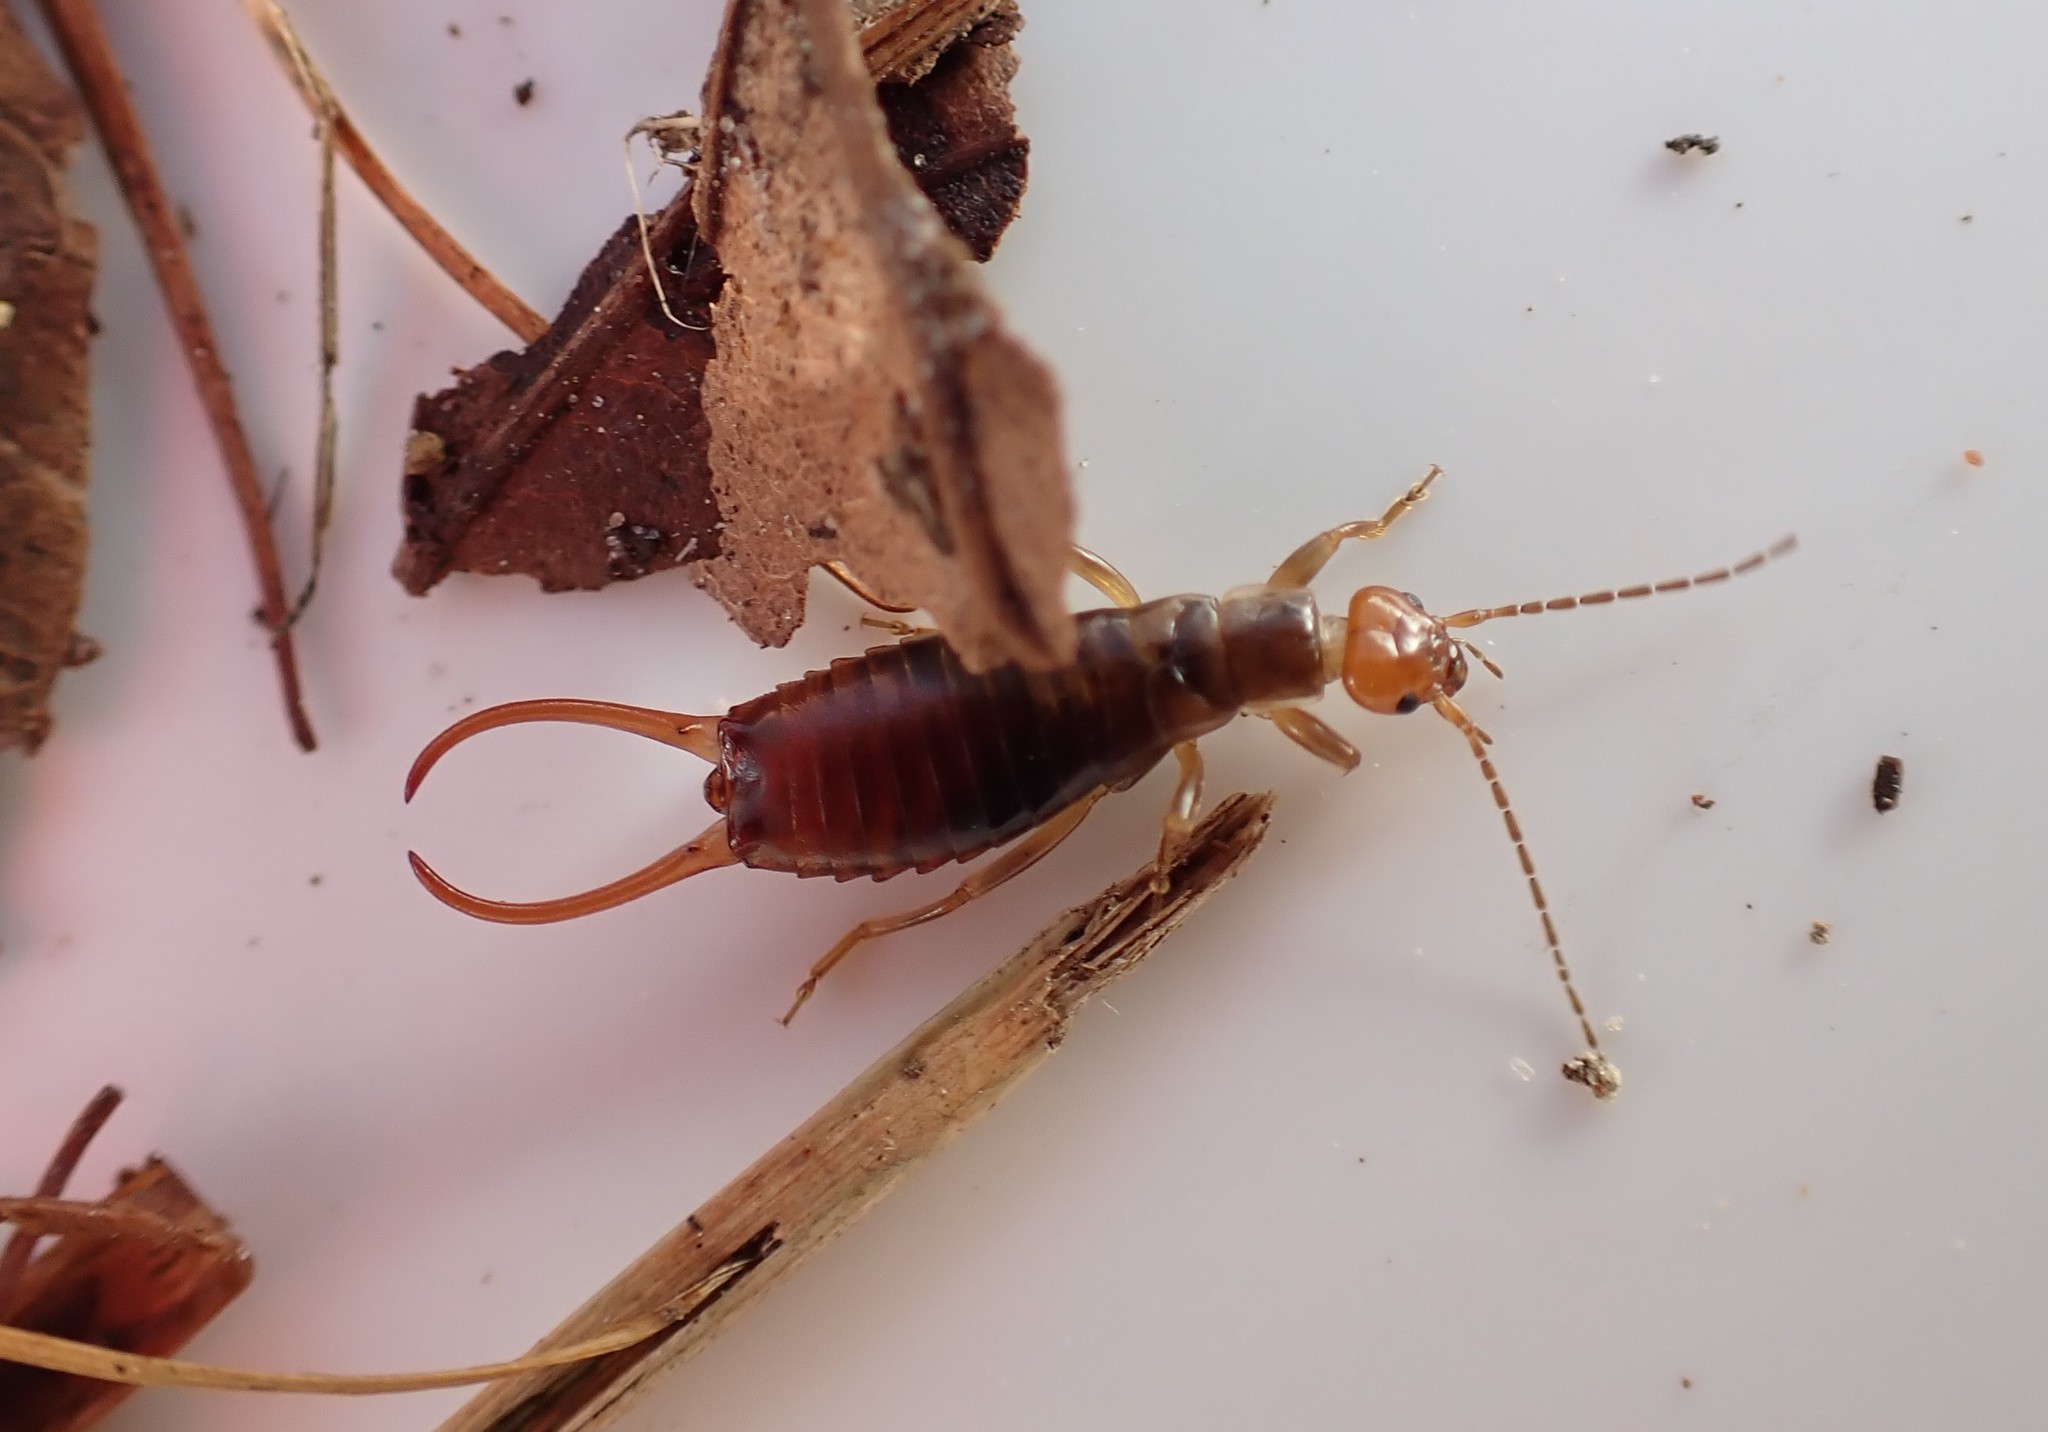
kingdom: Animalia
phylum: Arthropoda
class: Insecta
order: Dermaptera
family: Forficulidae
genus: Chelidurella
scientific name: Chelidurella acanthopygia
